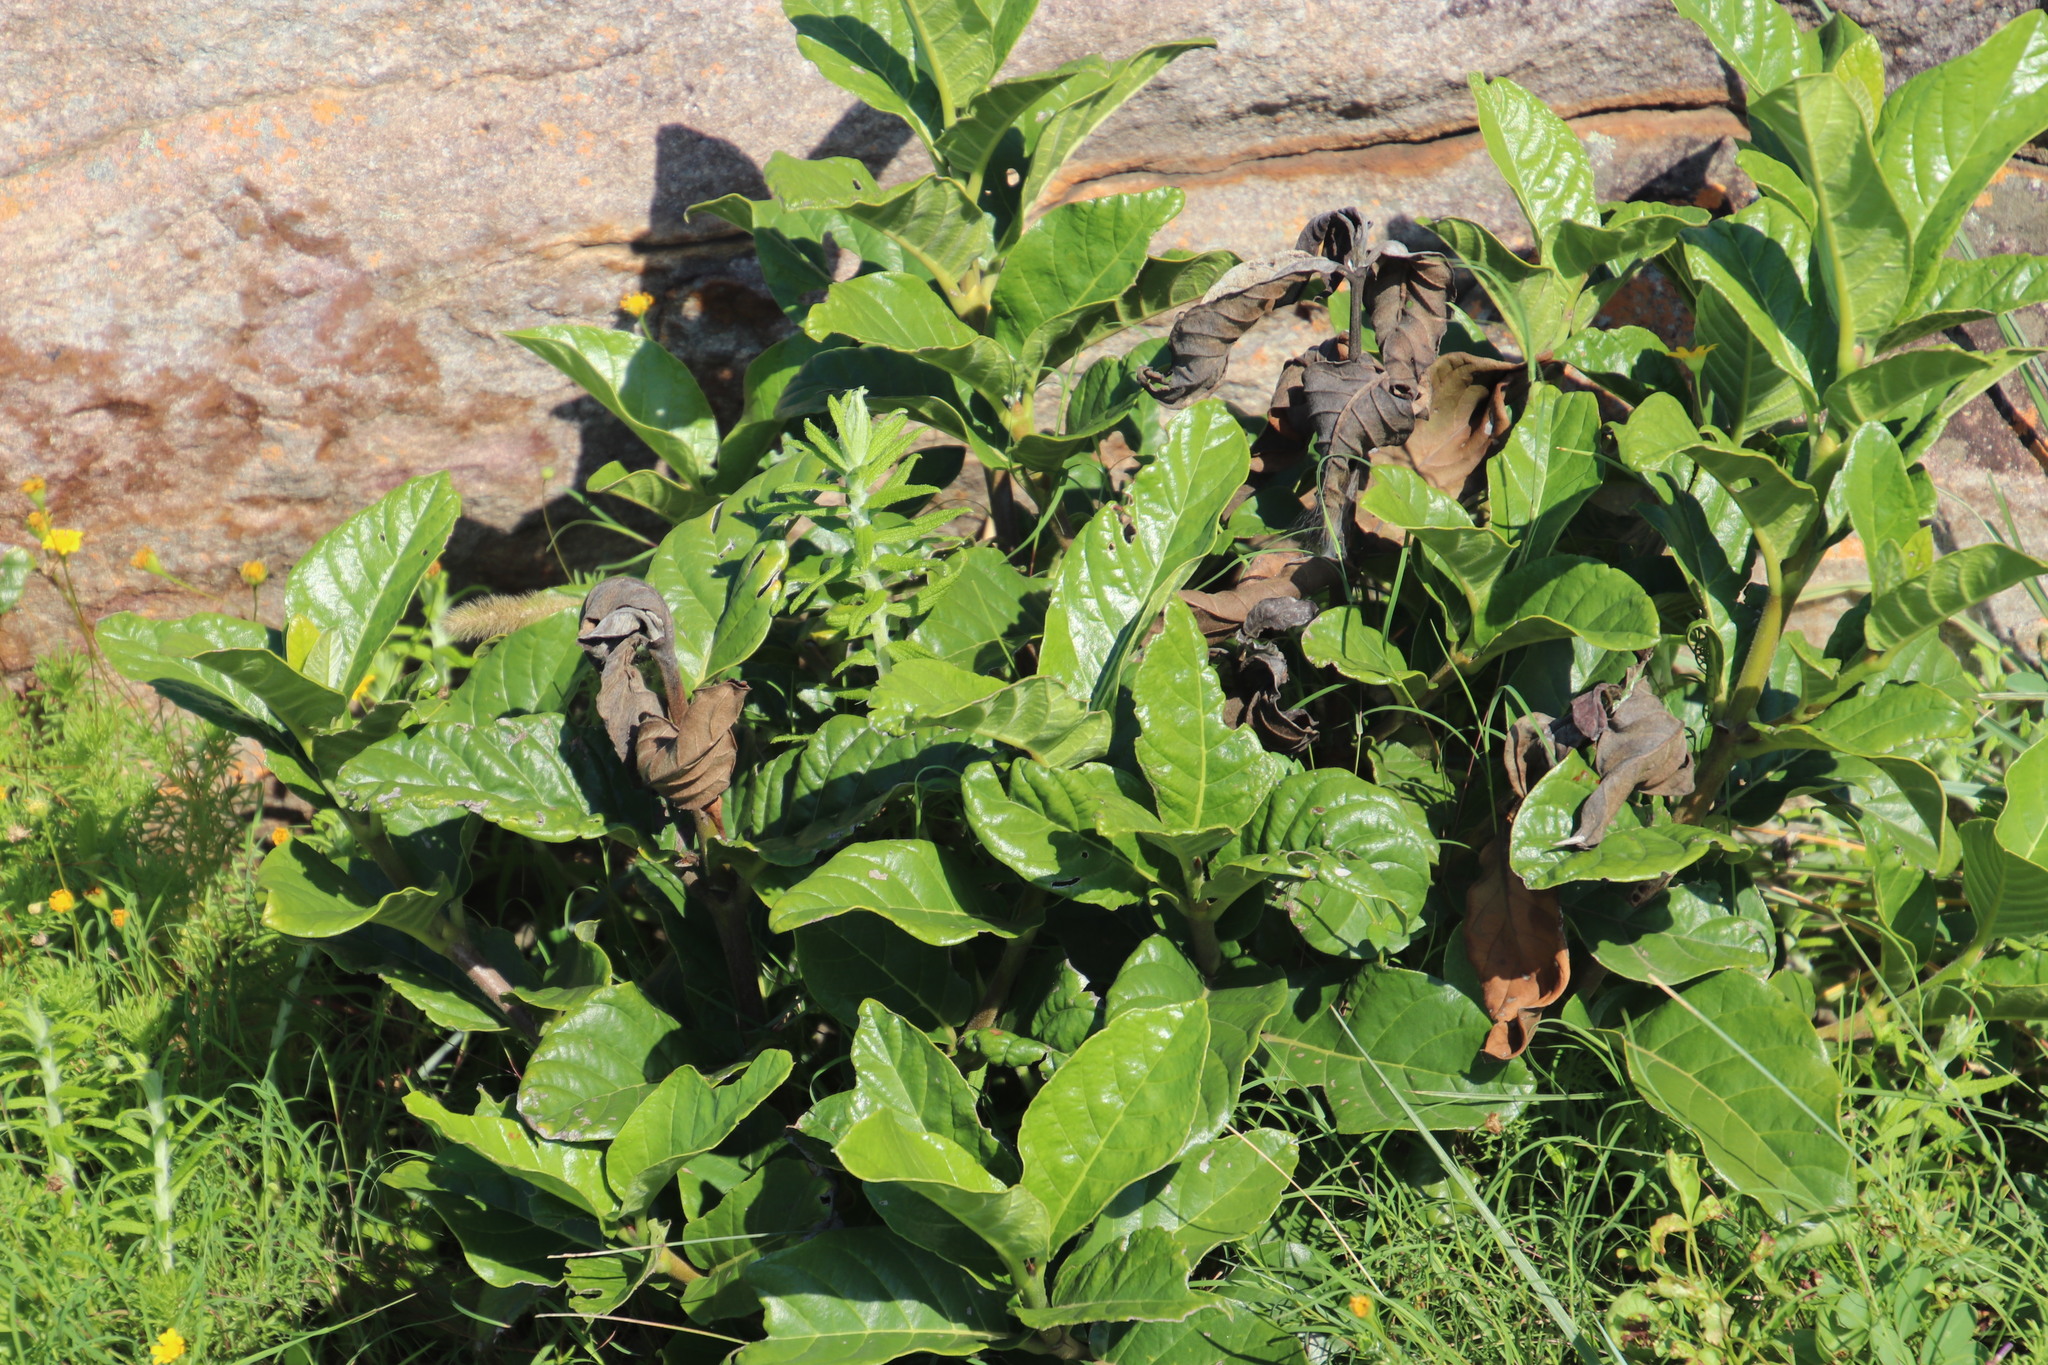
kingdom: Plantae
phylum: Tracheophyta
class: Magnoliopsida
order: Gentianales
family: Rubiaceae
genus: Mitriostigma
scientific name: Mitriostigma axillare
